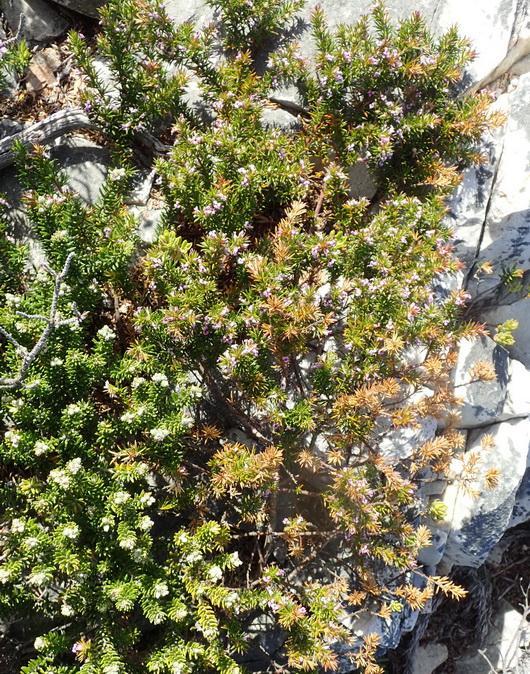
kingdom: Plantae
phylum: Tracheophyta
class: Magnoliopsida
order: Fabales
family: Polygalaceae
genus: Muraltia
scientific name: Muraltia ericifolia
